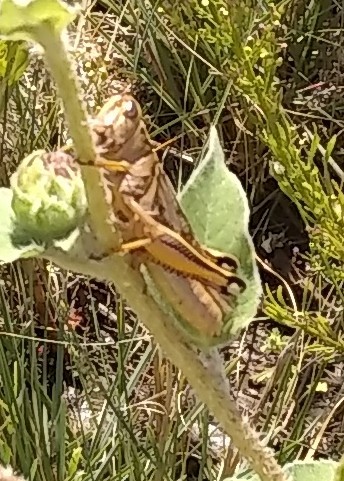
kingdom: Animalia
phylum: Arthropoda
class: Insecta
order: Orthoptera
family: Acrididae
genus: Melanoplus
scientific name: Melanoplus bivittatus
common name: Two-striped grasshopper
